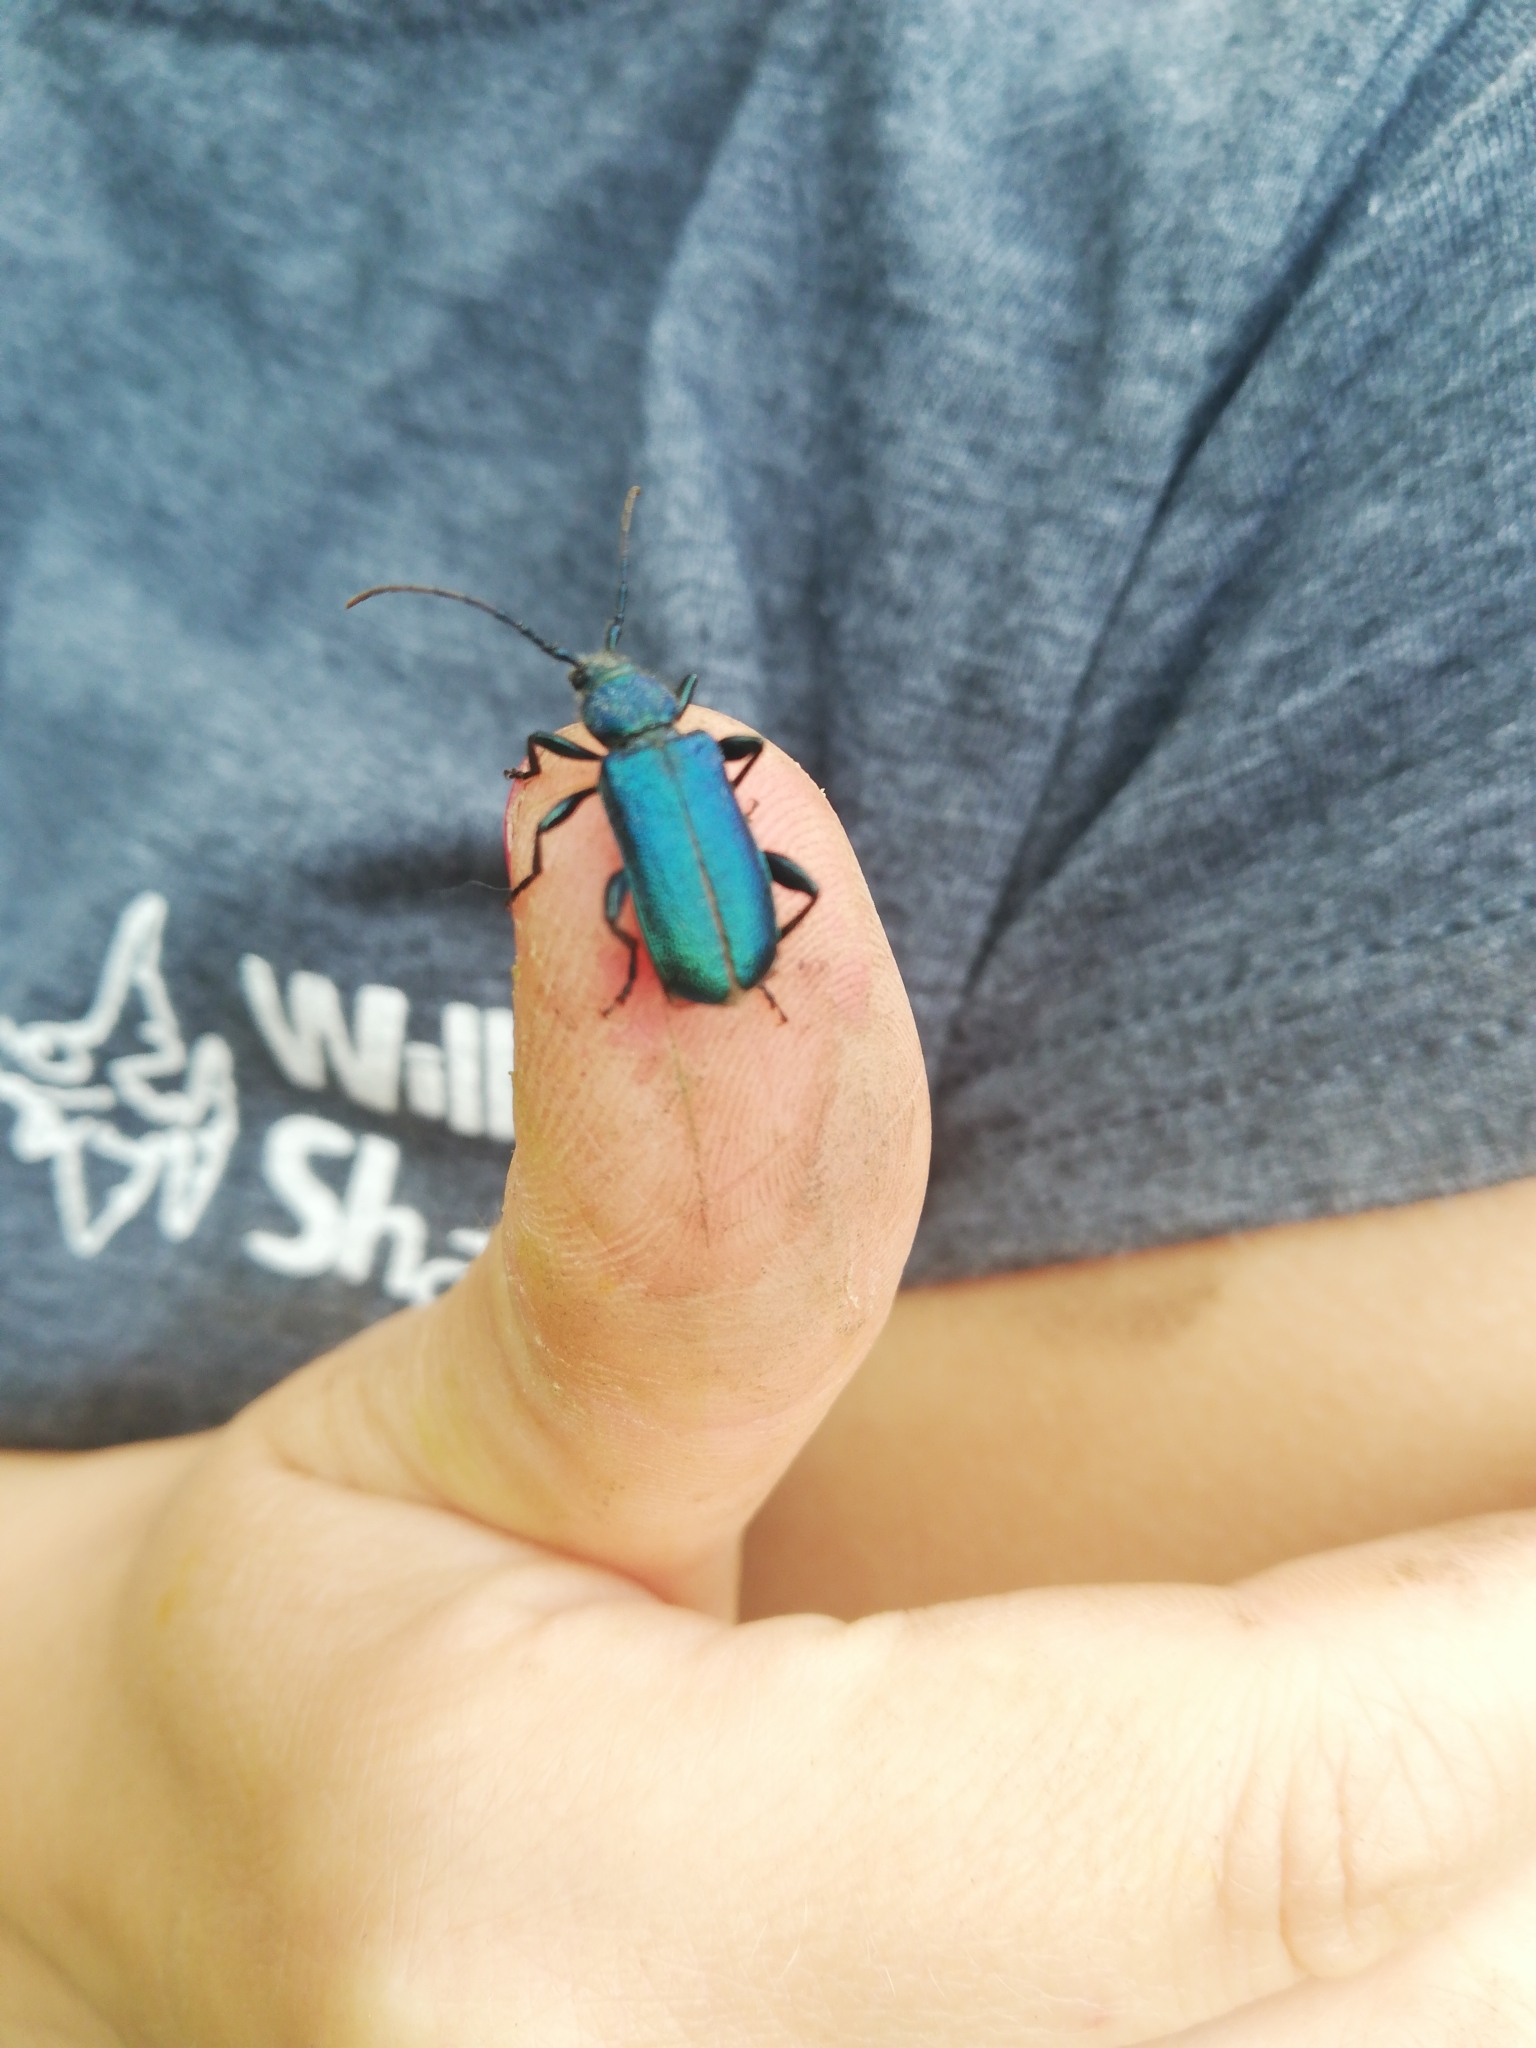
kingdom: Animalia
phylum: Arthropoda
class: Insecta
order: Coleoptera
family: Cerambycidae
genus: Callidium
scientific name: Callidium violaceum
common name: Violet tanbark beetle
